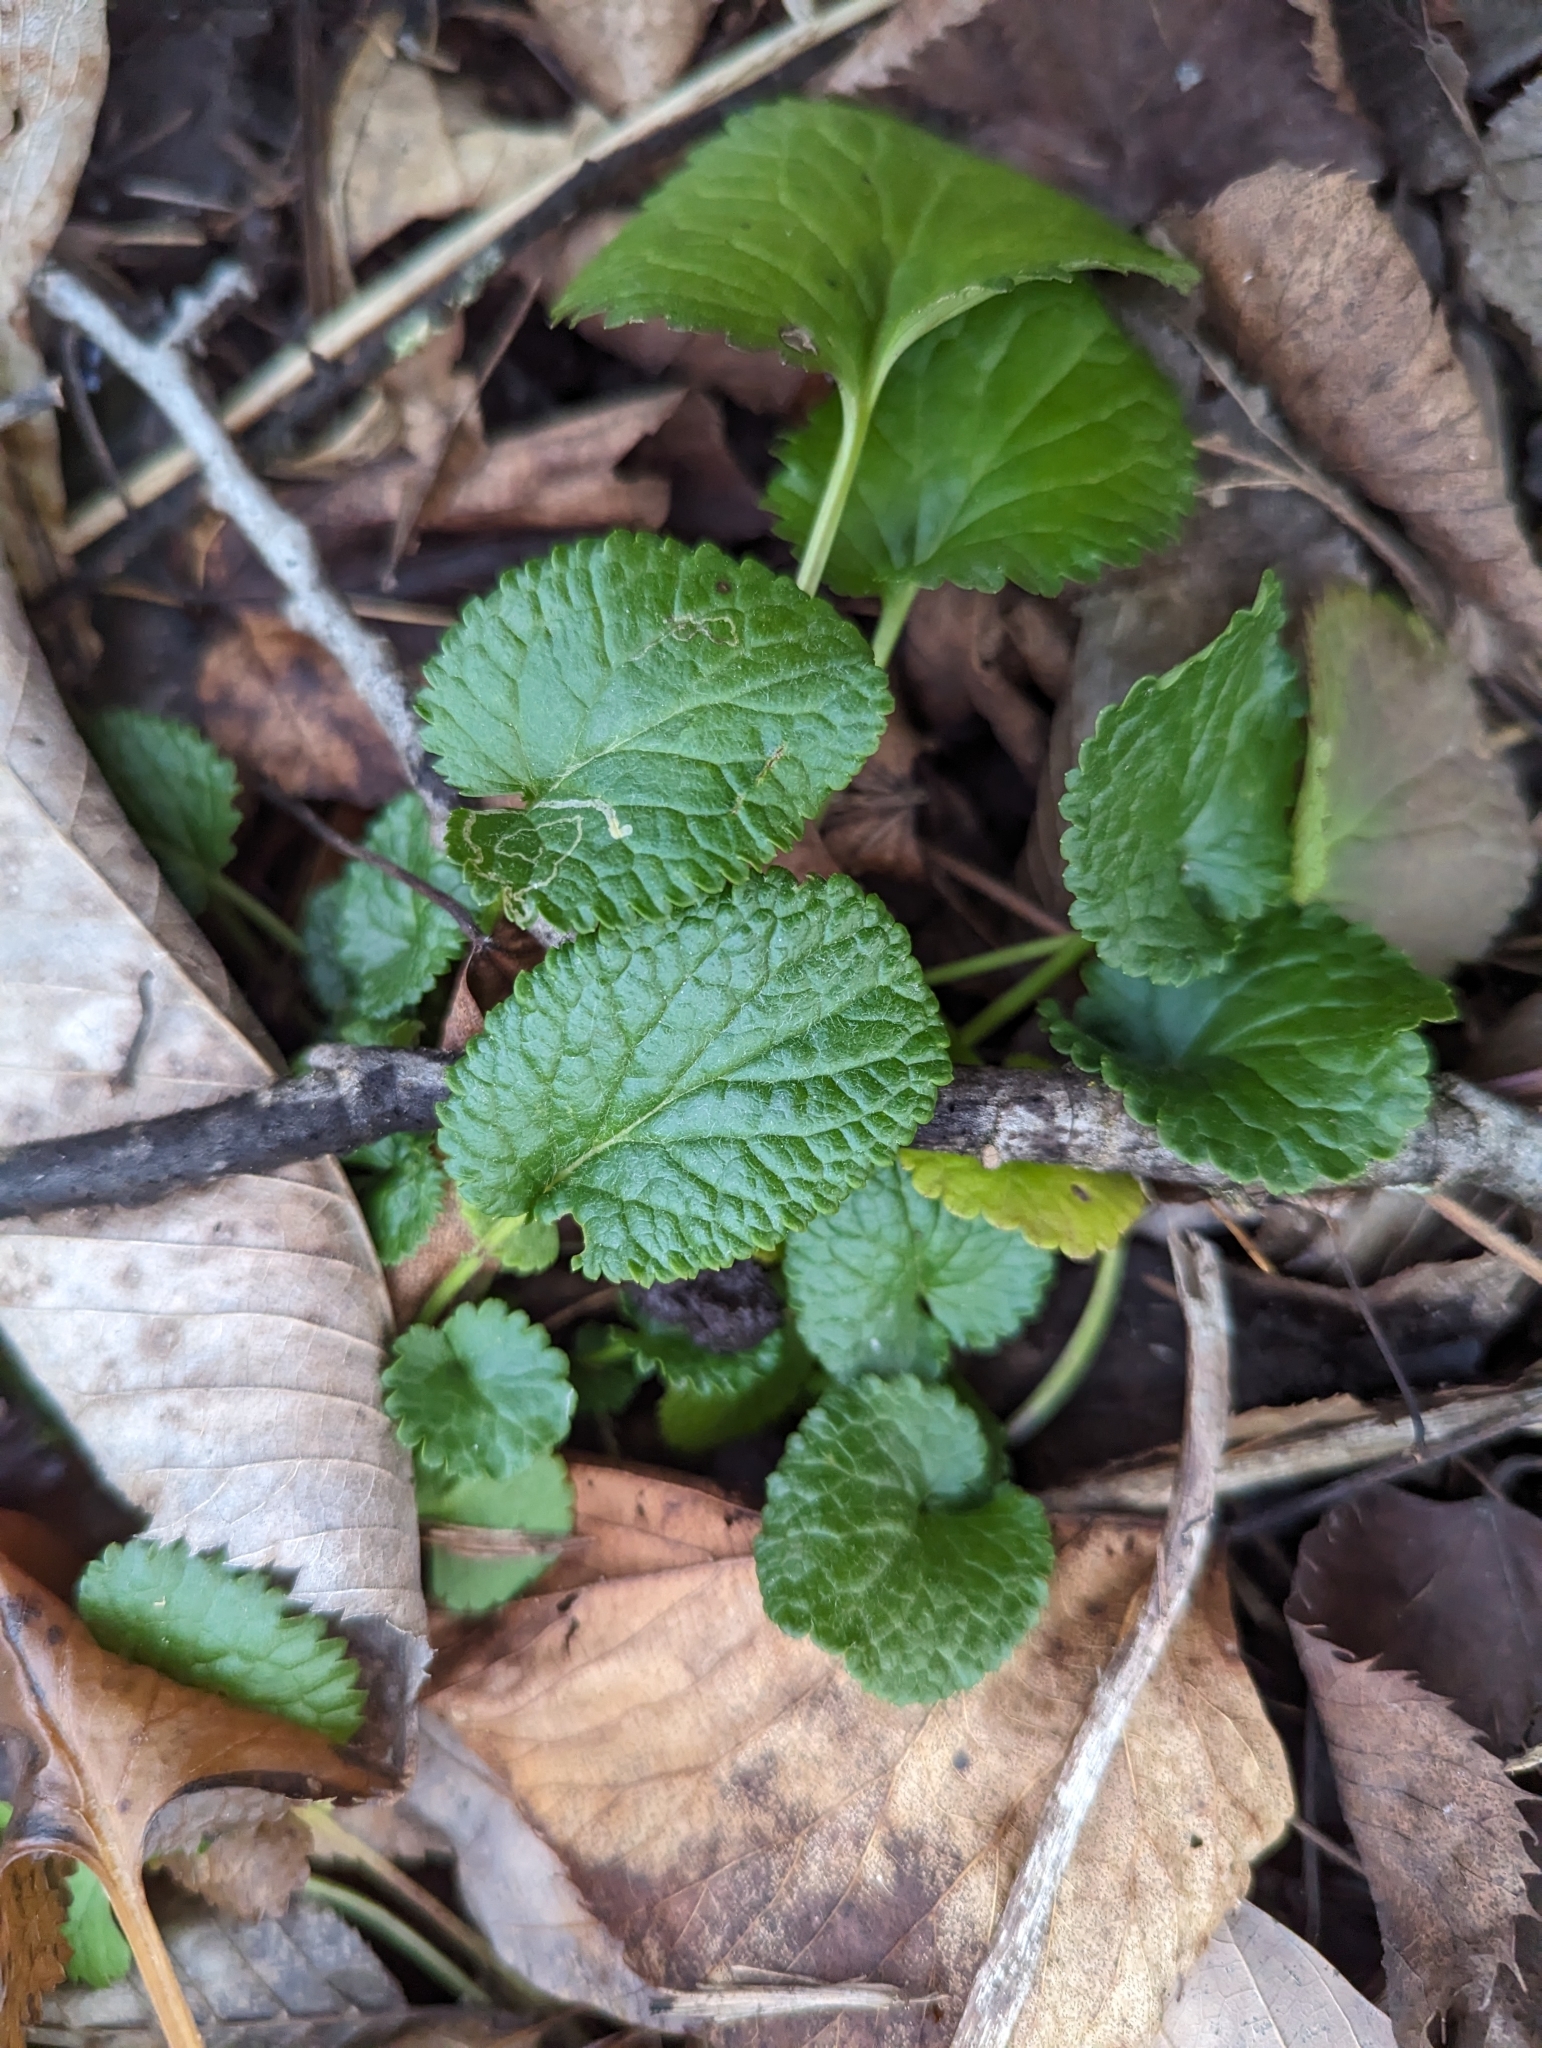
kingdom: Plantae
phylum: Tracheophyta
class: Magnoliopsida
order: Asterales
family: Asteraceae
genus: Packera
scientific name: Packera aurea
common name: Golden groundsel
